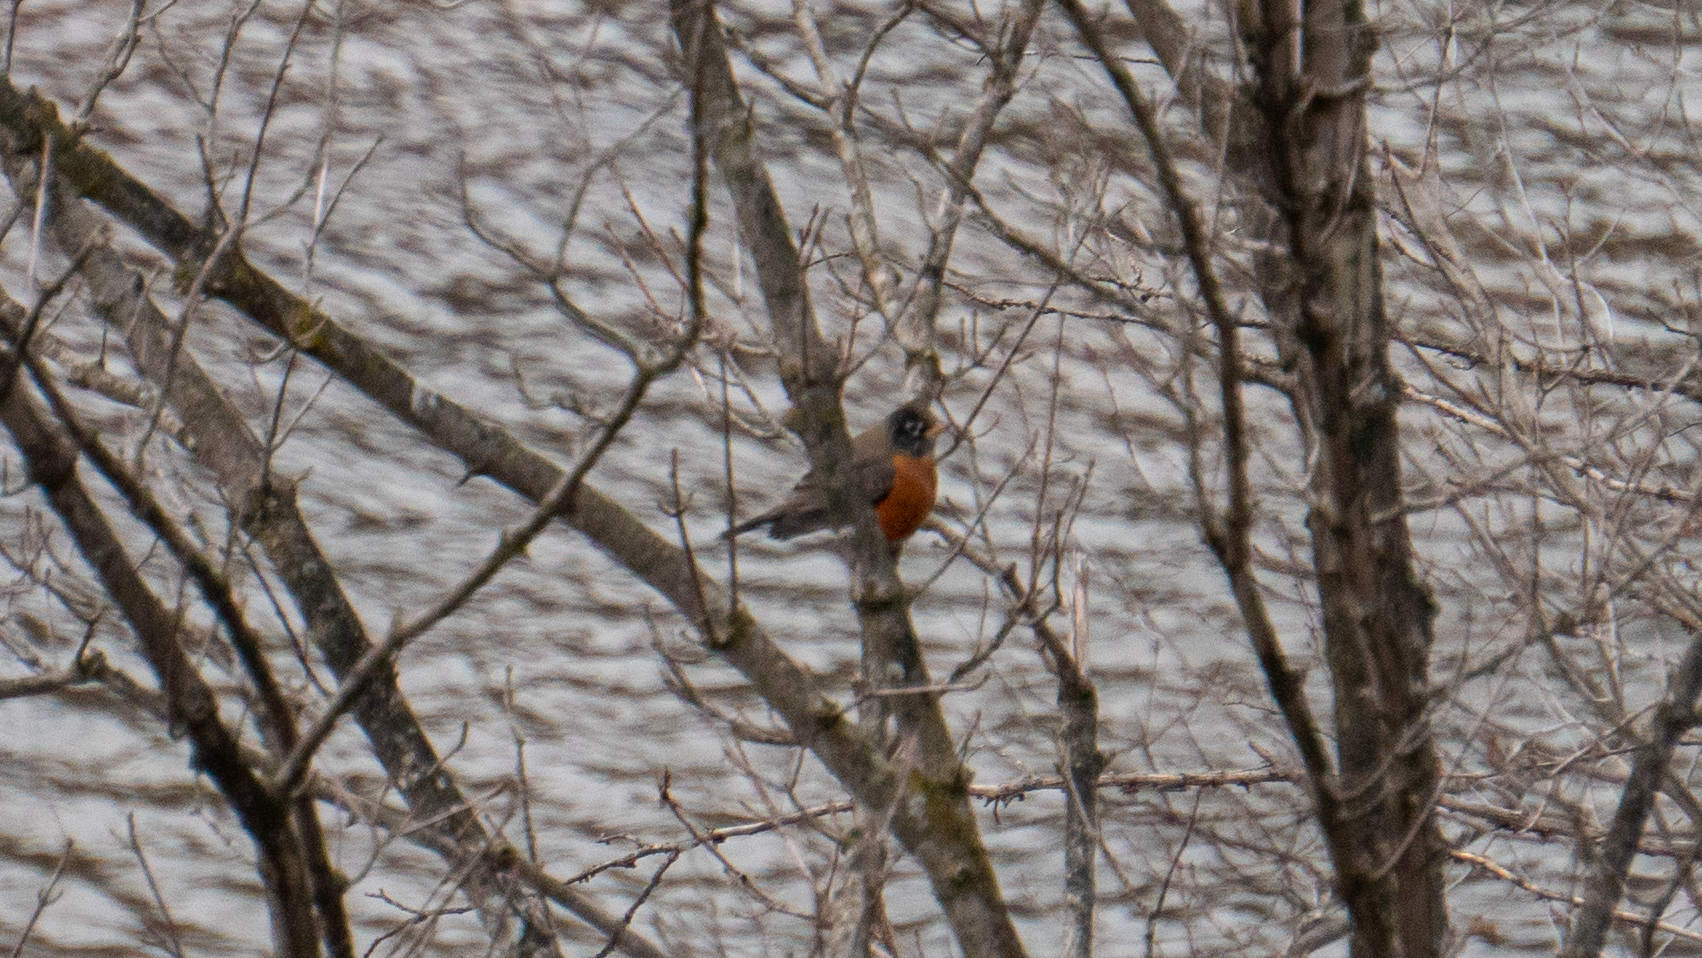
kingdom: Animalia
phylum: Chordata
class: Aves
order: Passeriformes
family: Turdidae
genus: Turdus
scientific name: Turdus migratorius
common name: American robin
